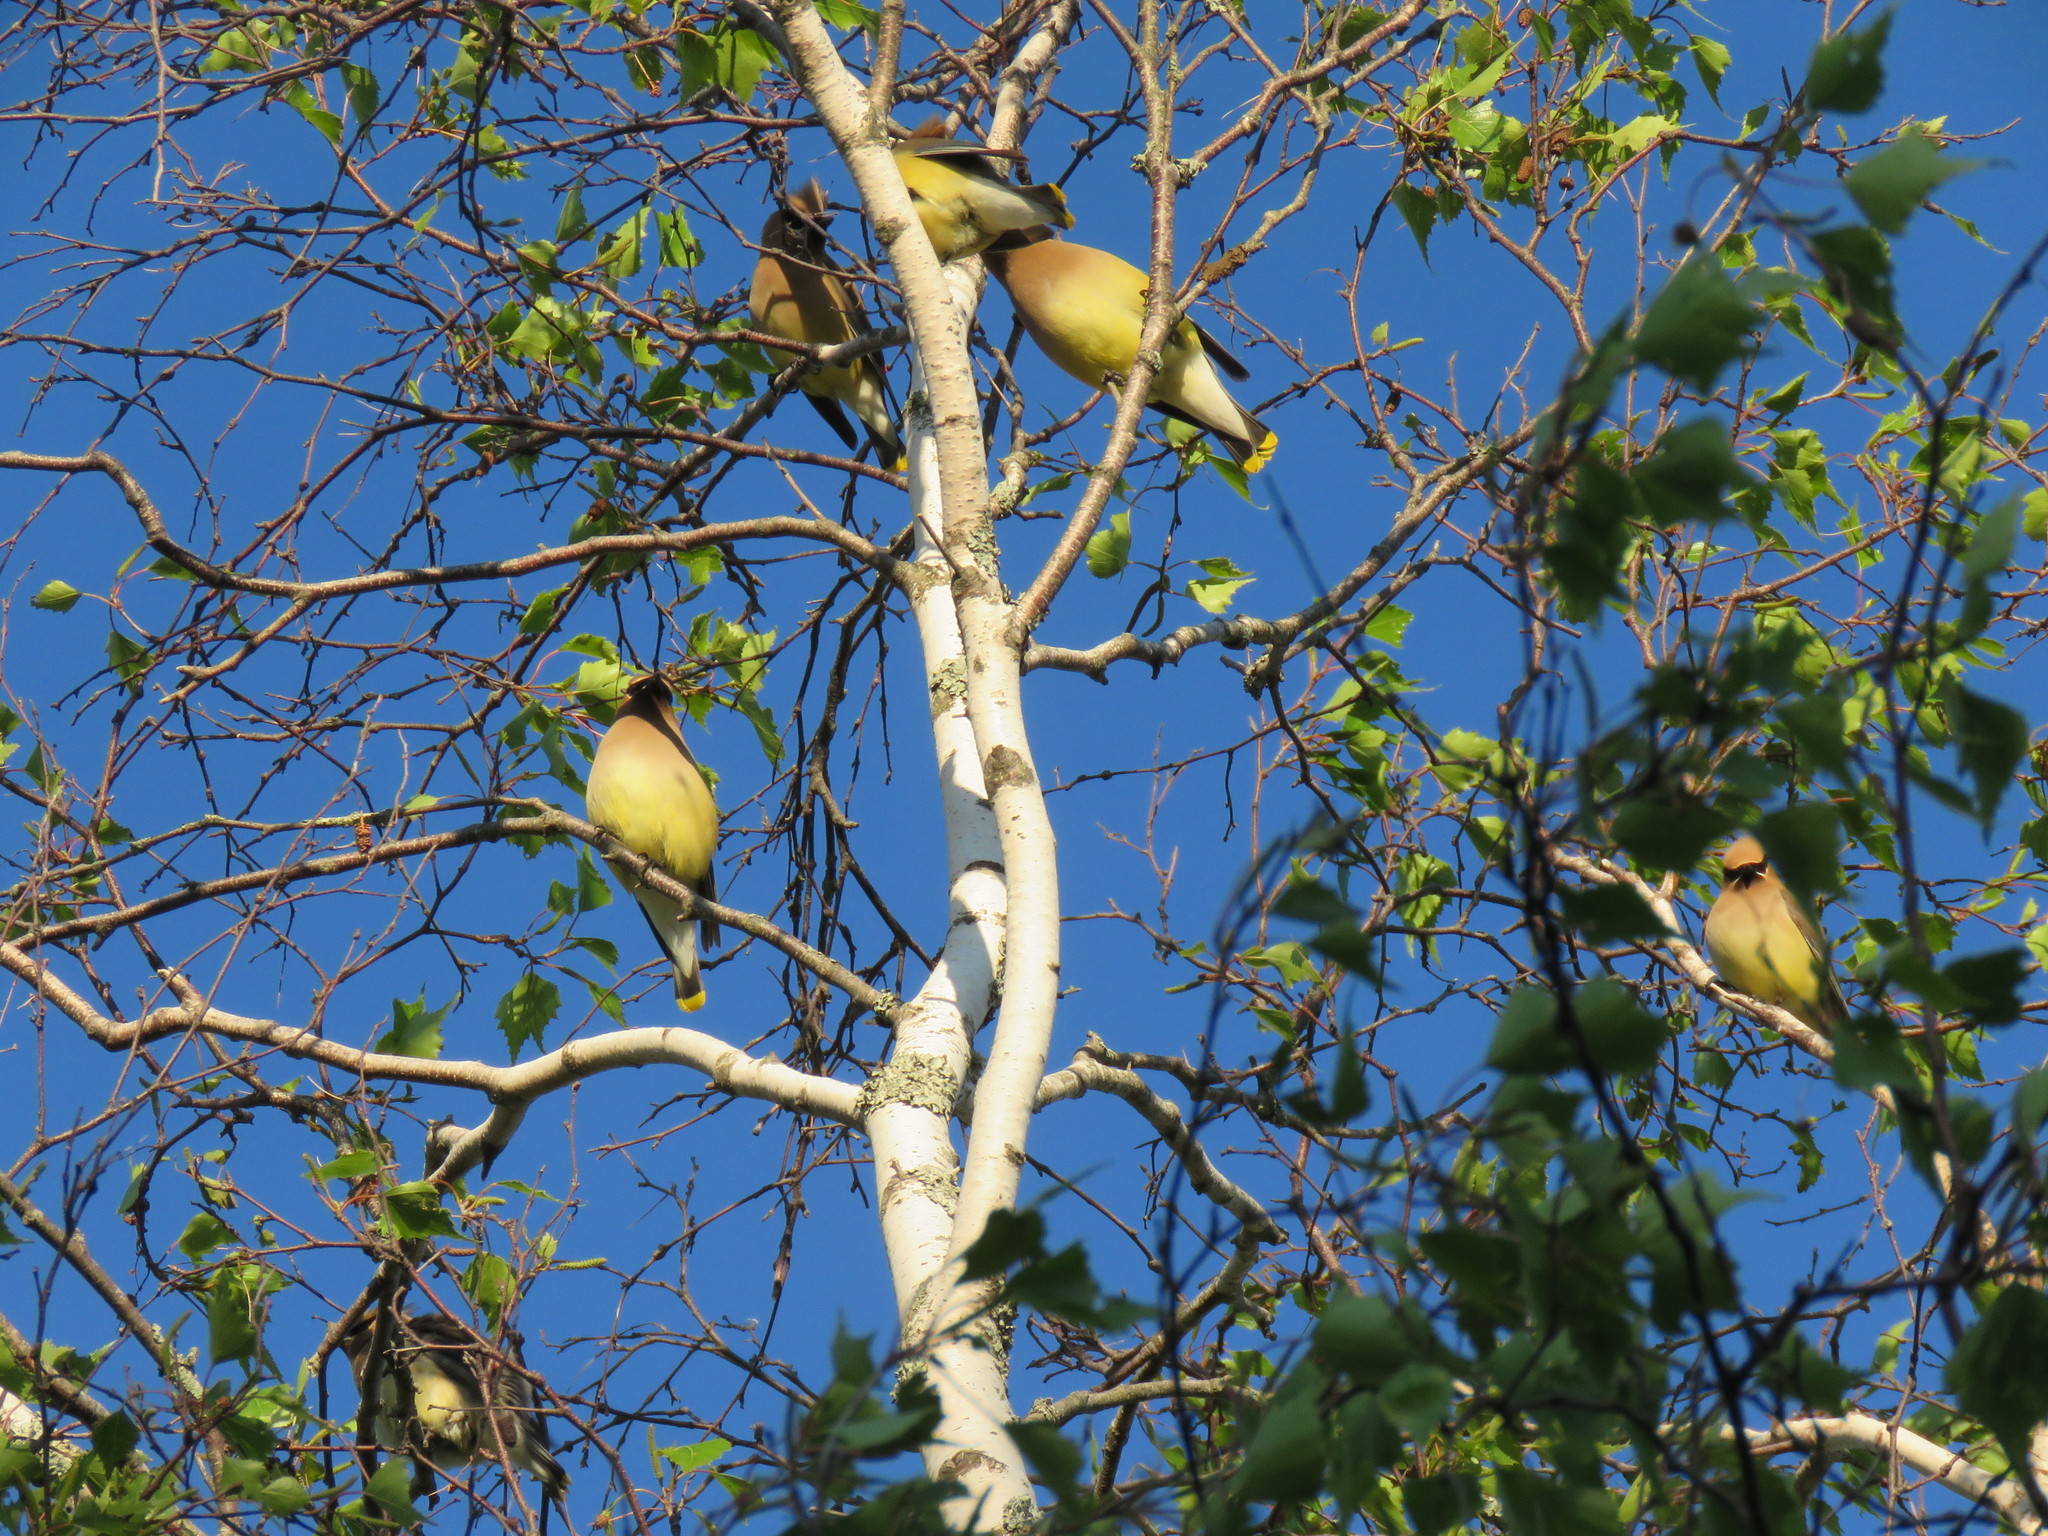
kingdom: Animalia
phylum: Chordata
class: Aves
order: Passeriformes
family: Bombycillidae
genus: Bombycilla
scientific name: Bombycilla cedrorum
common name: Cedar waxwing
